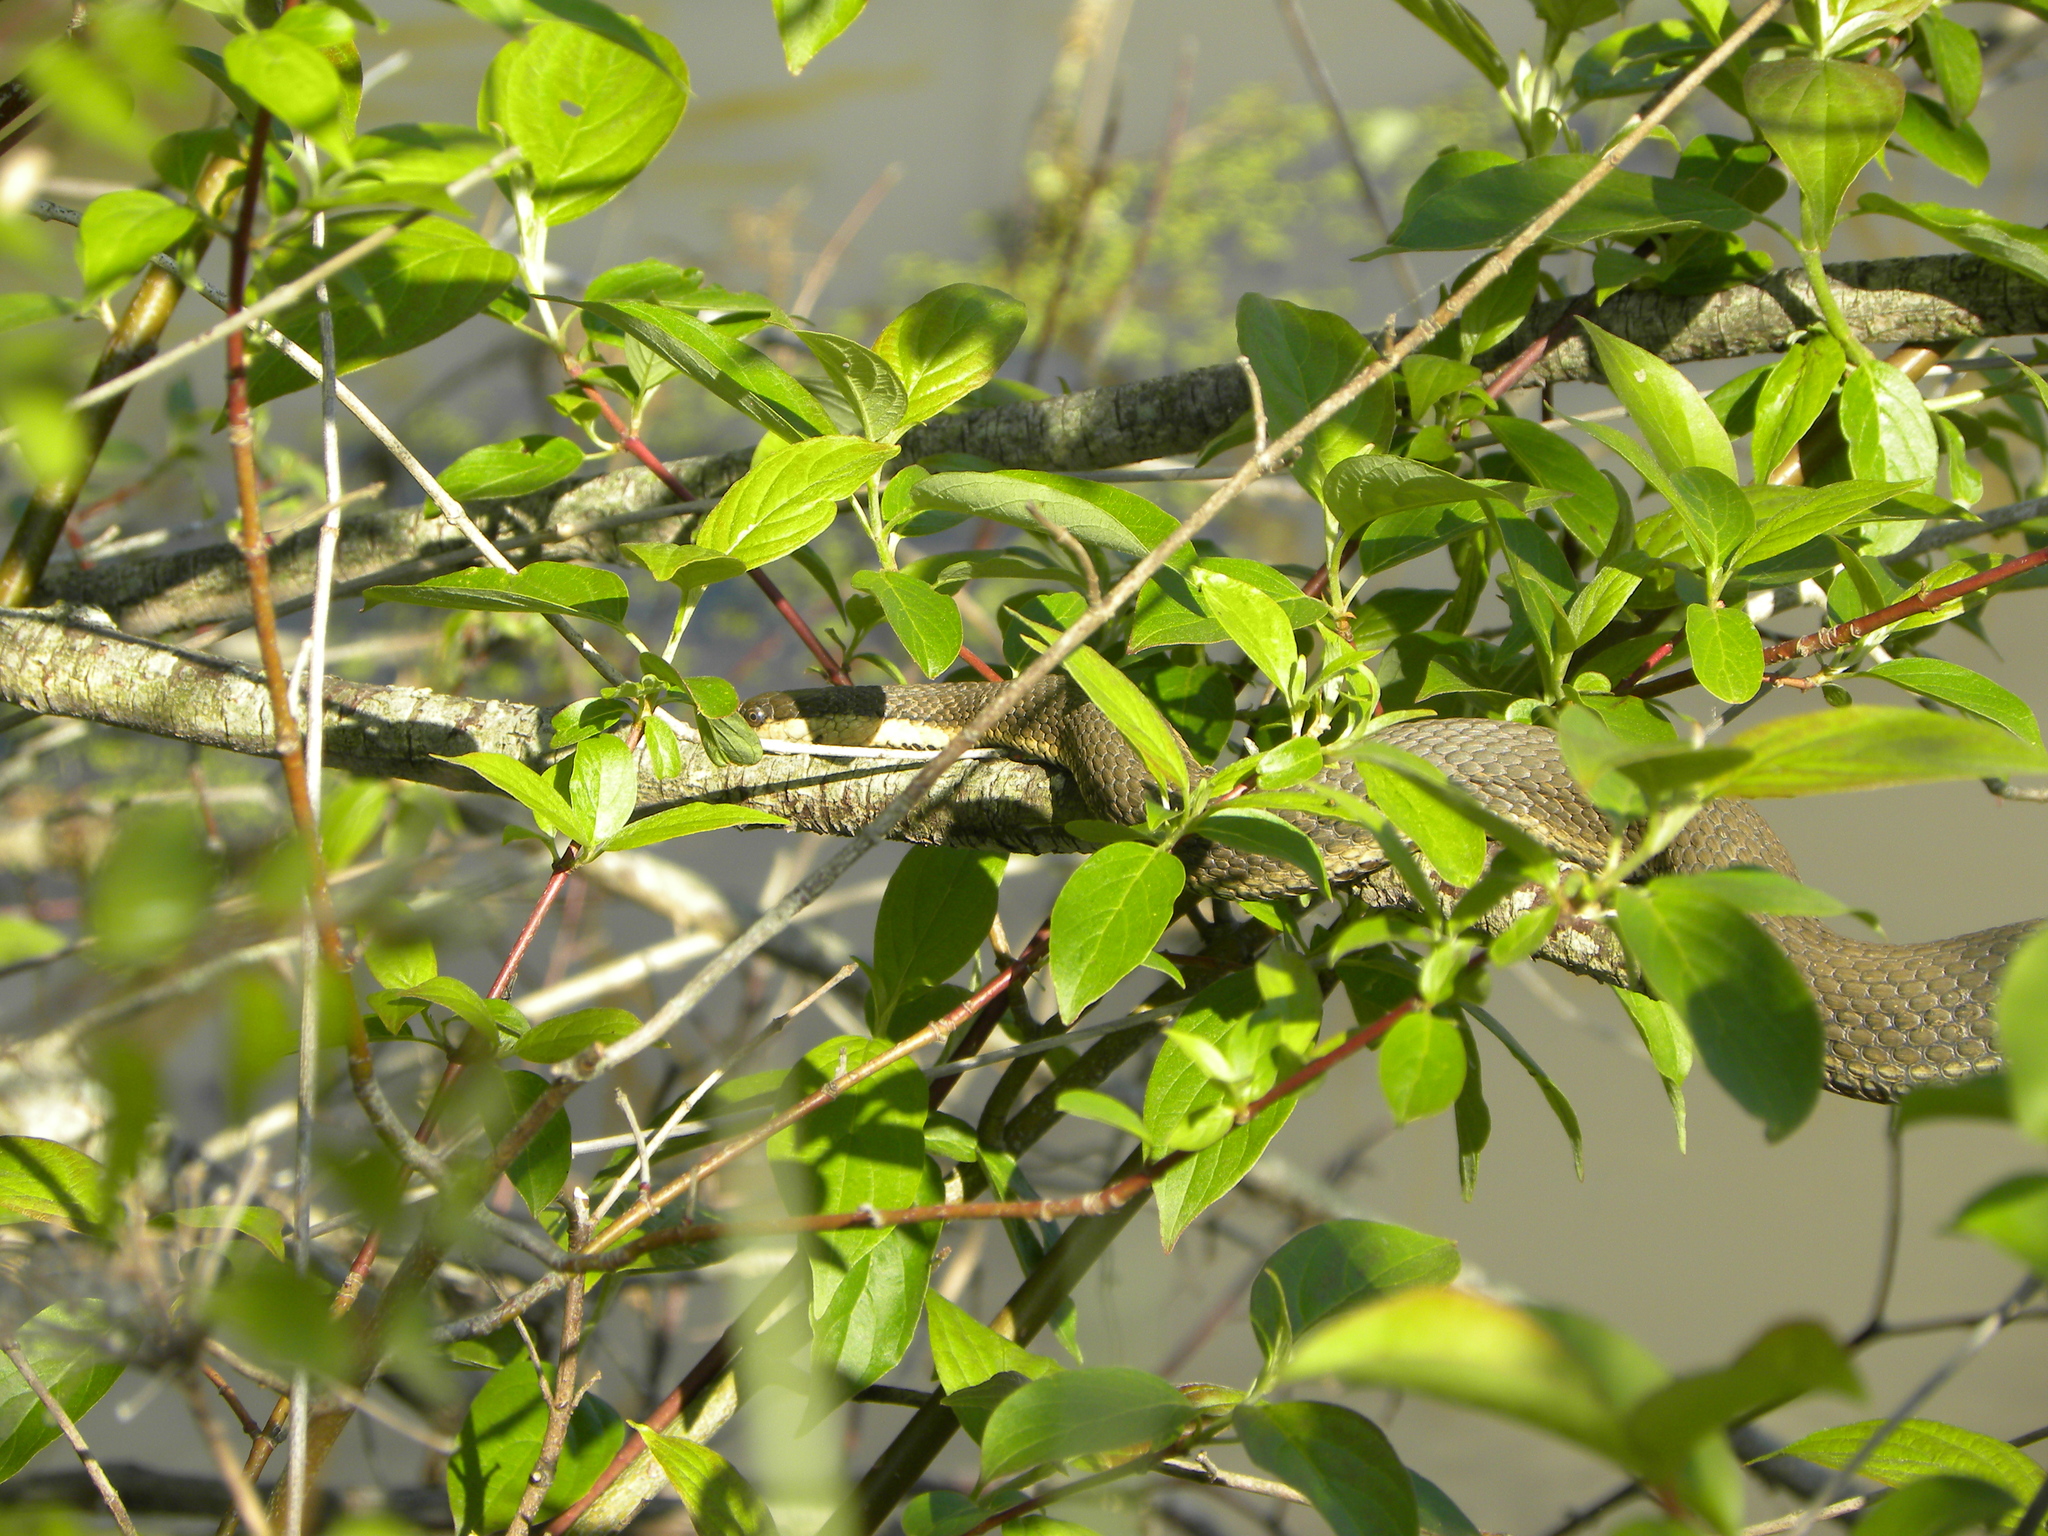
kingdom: Animalia
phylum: Chordata
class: Squamata
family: Colubridae
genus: Regina
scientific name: Regina septemvittata
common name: Queen snake
